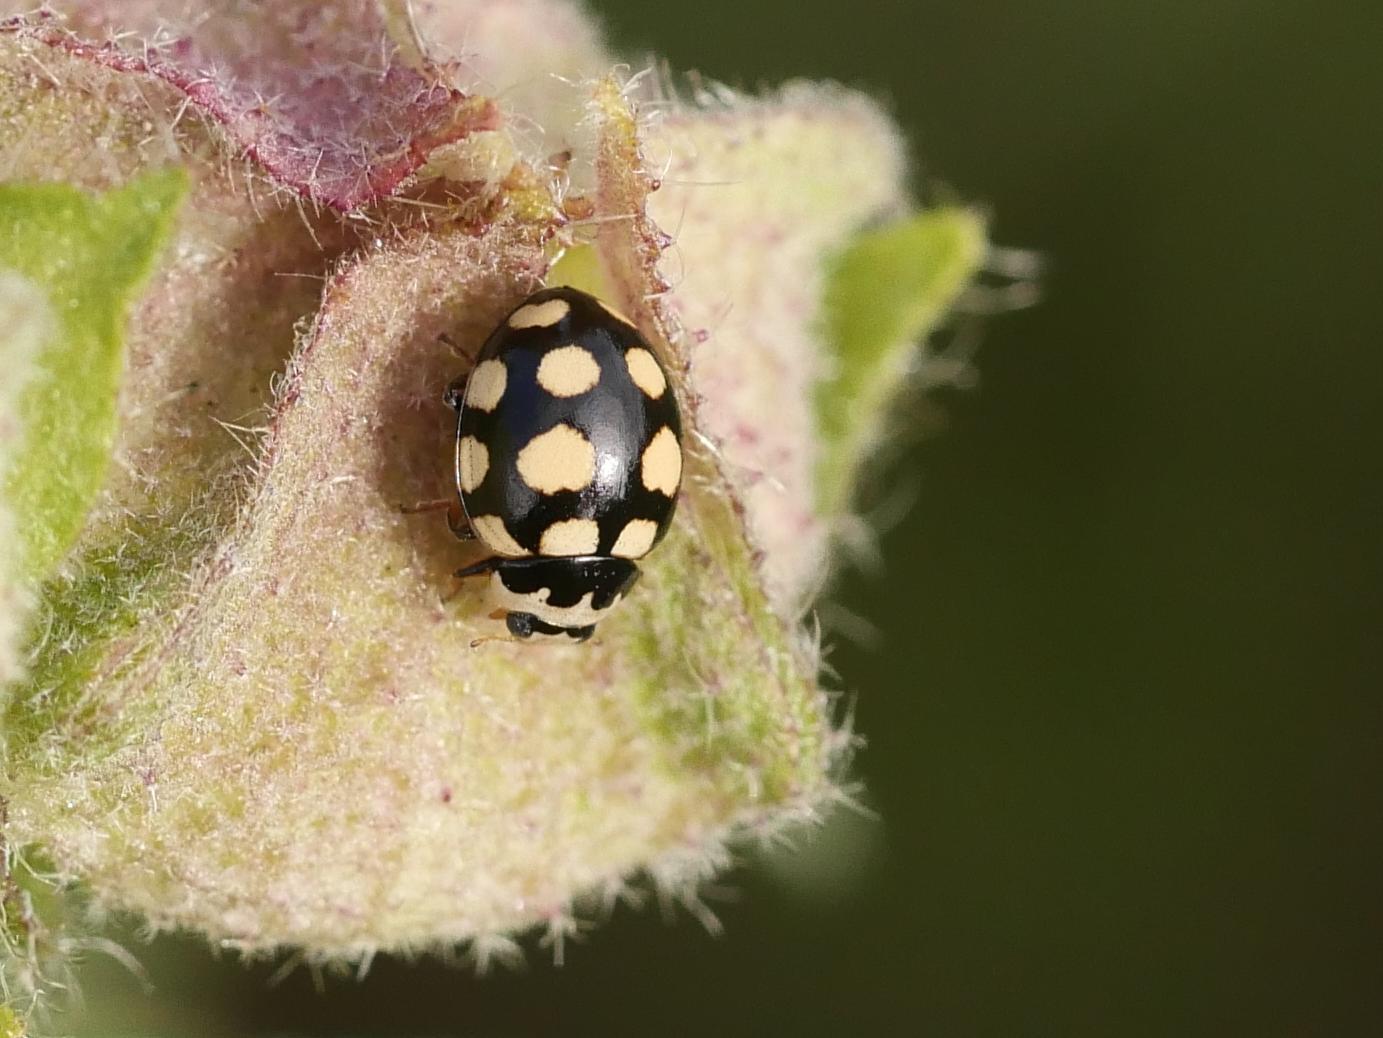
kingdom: Animalia
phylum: Arthropoda
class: Insecta
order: Coleoptera
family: Coccinellidae
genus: Coccinula
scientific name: Coccinula quatuordecimpustulata
